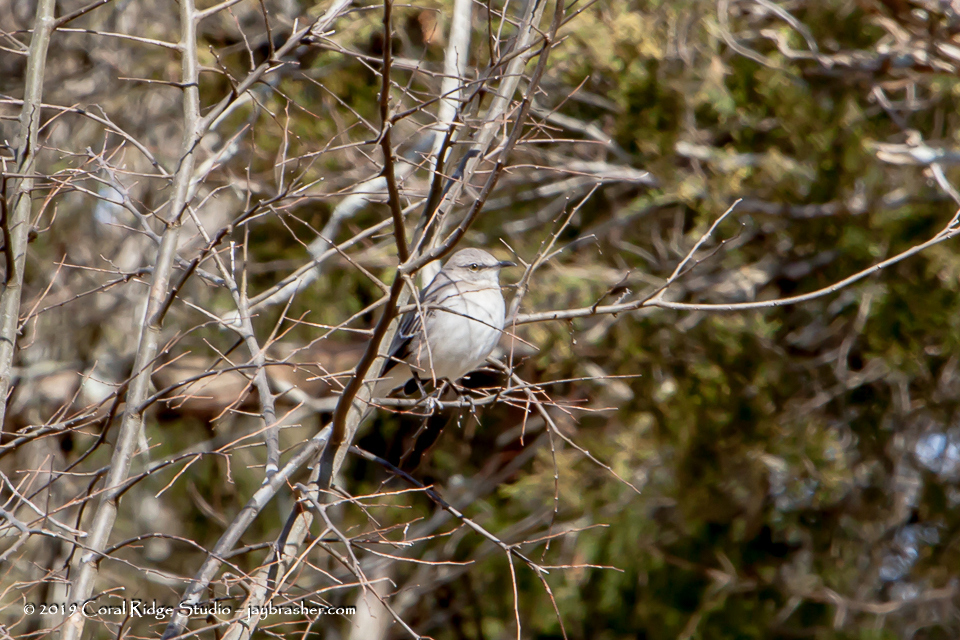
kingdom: Animalia
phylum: Chordata
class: Aves
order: Passeriformes
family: Mimidae
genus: Mimus
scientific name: Mimus polyglottos
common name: Northern mockingbird
